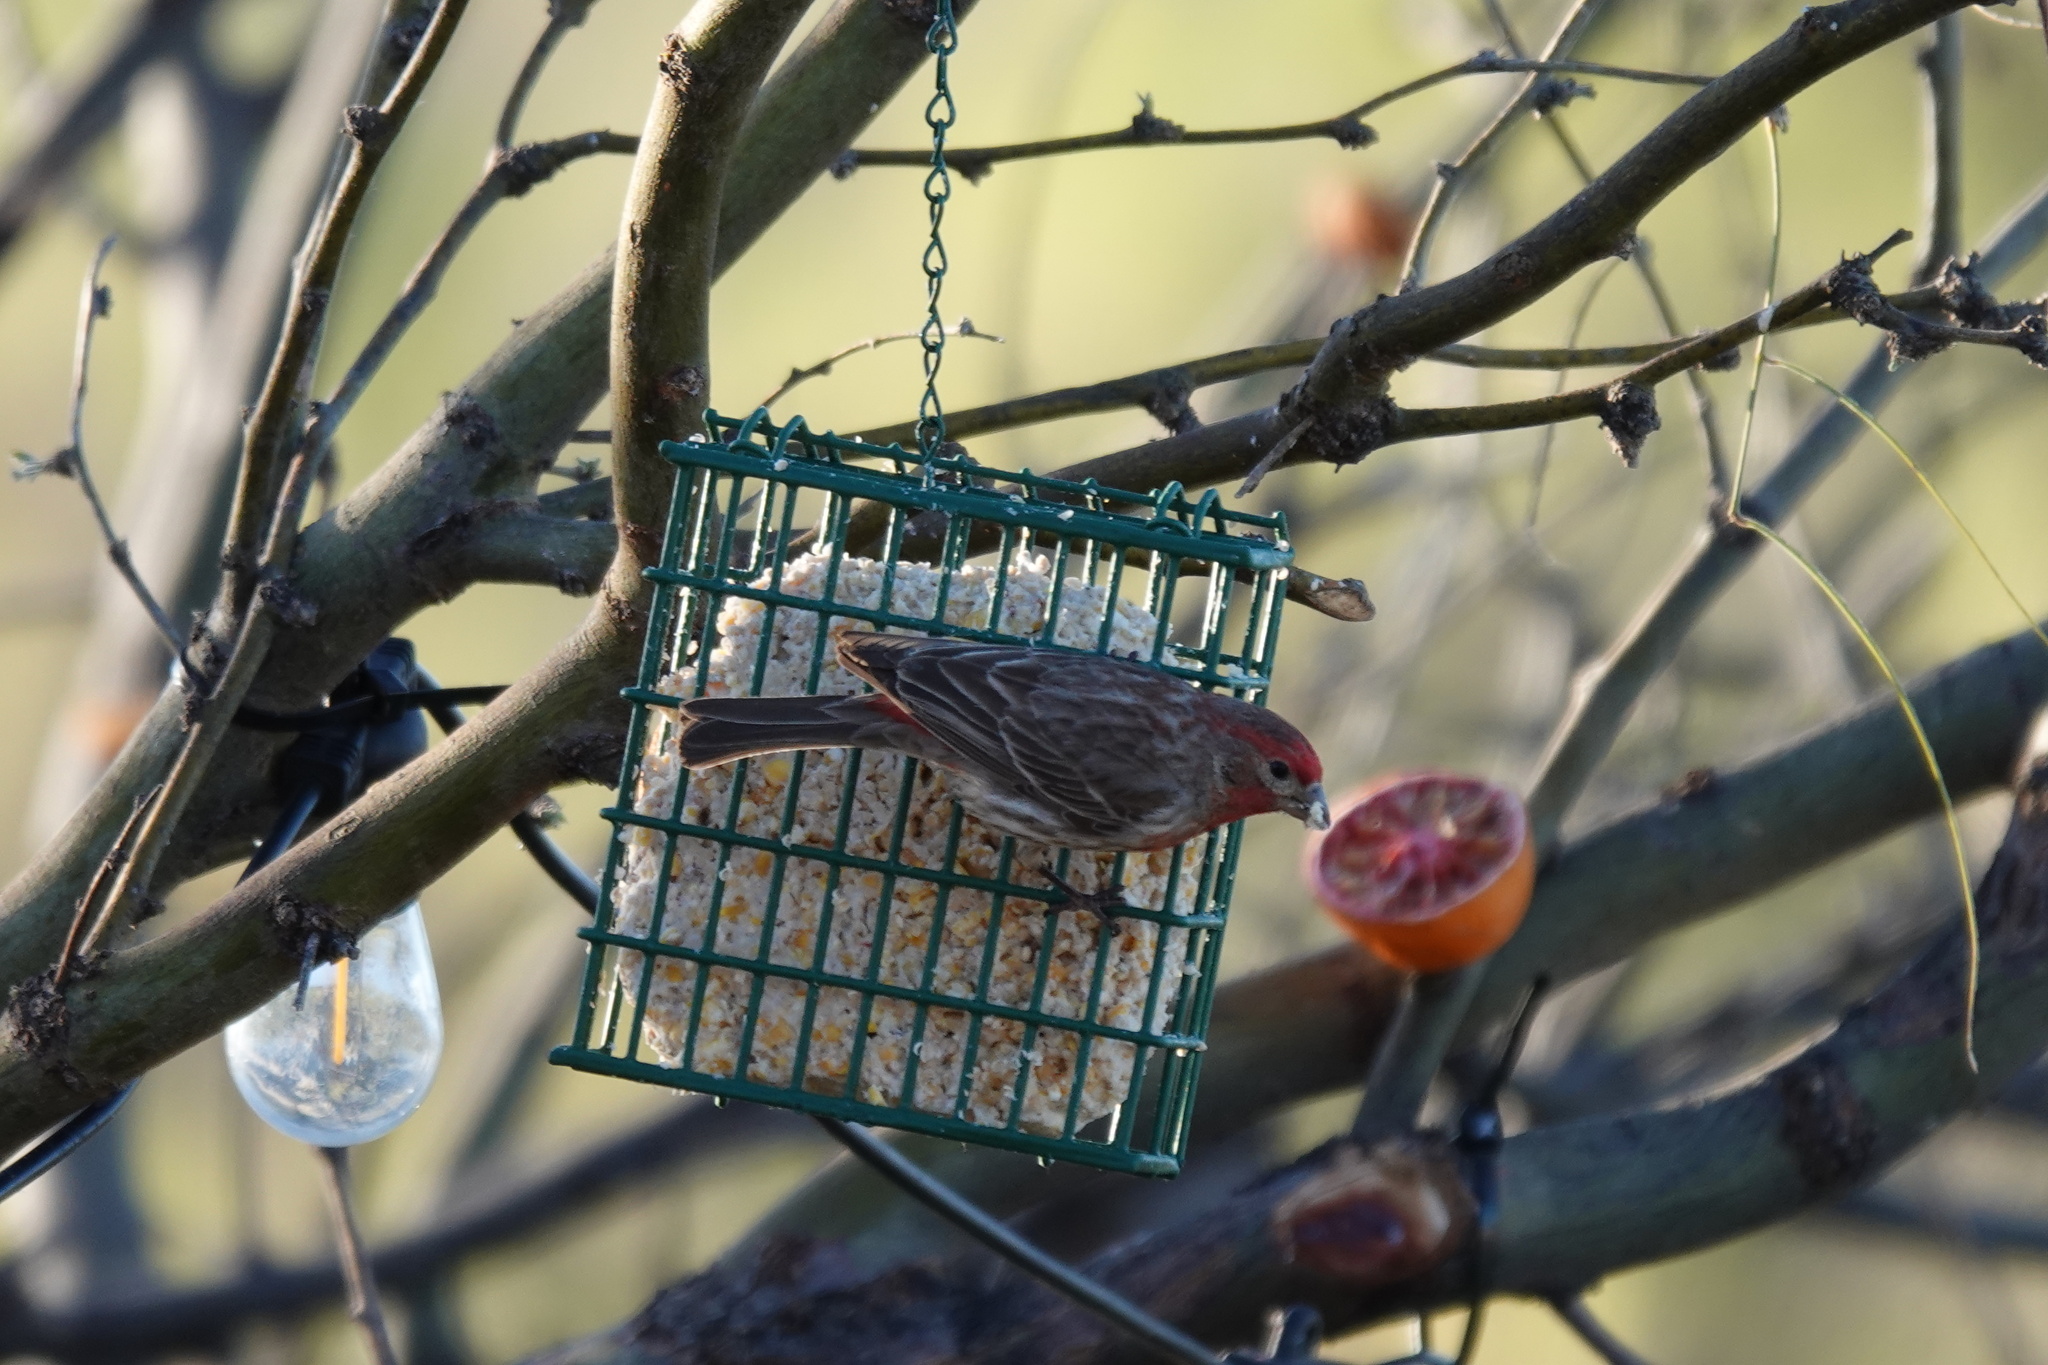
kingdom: Animalia
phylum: Chordata
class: Aves
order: Passeriformes
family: Fringillidae
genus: Haemorhous
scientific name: Haemorhous mexicanus
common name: House finch
